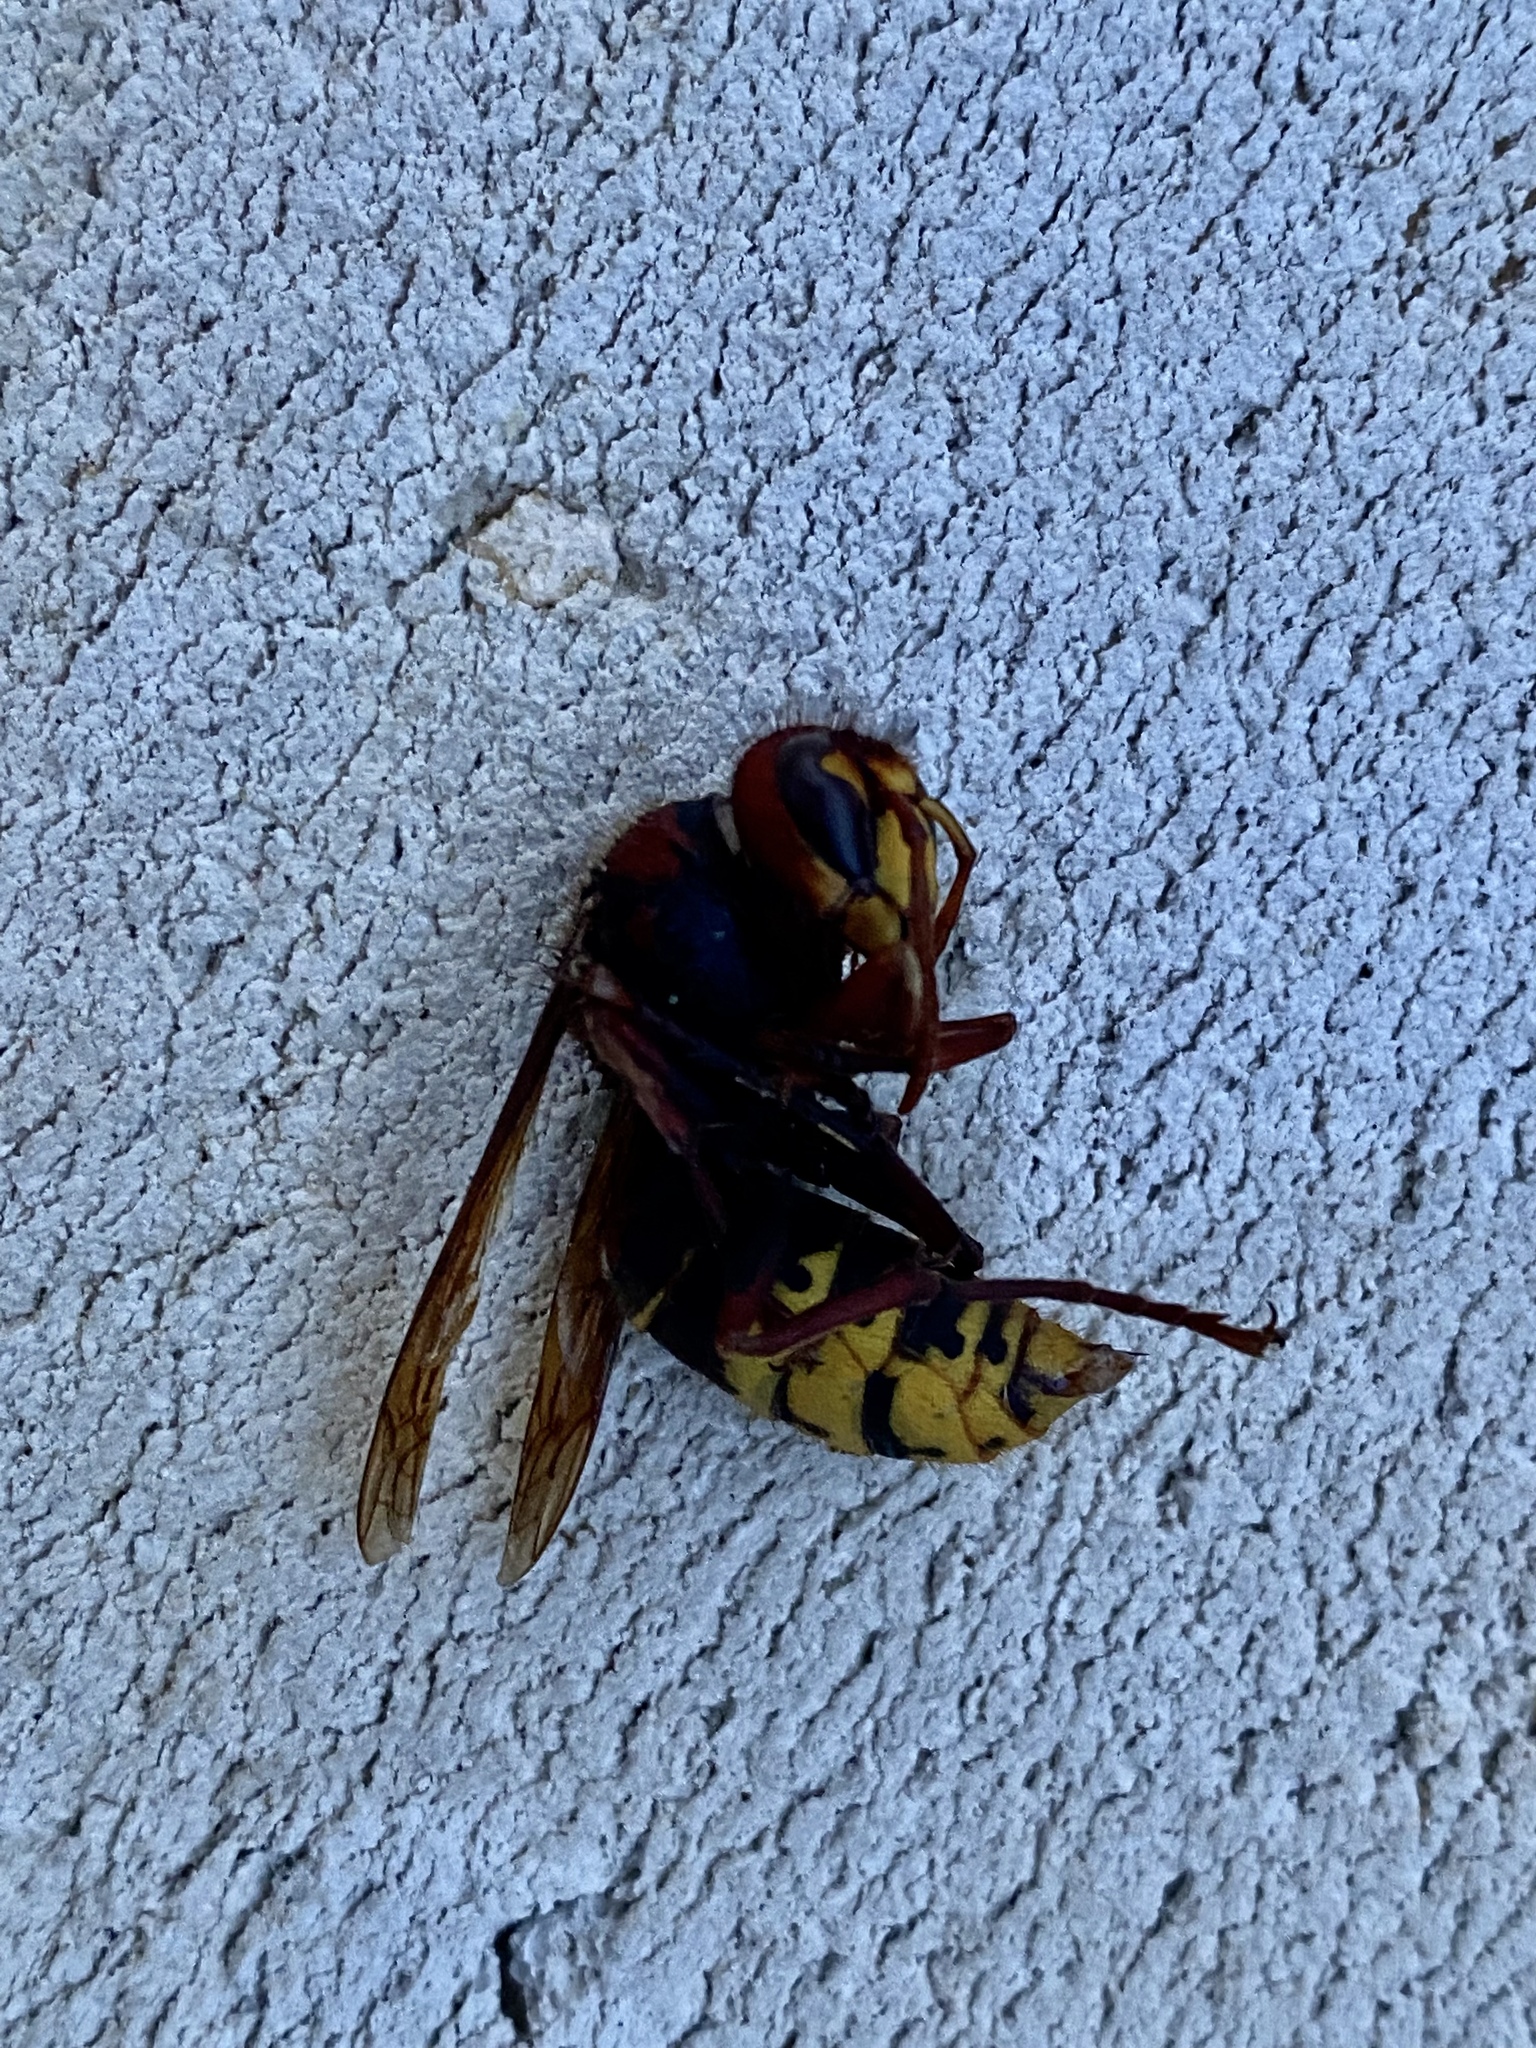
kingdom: Animalia
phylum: Arthropoda
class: Insecta
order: Hymenoptera
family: Vespidae
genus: Vespa
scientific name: Vespa crabro
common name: Hornet
